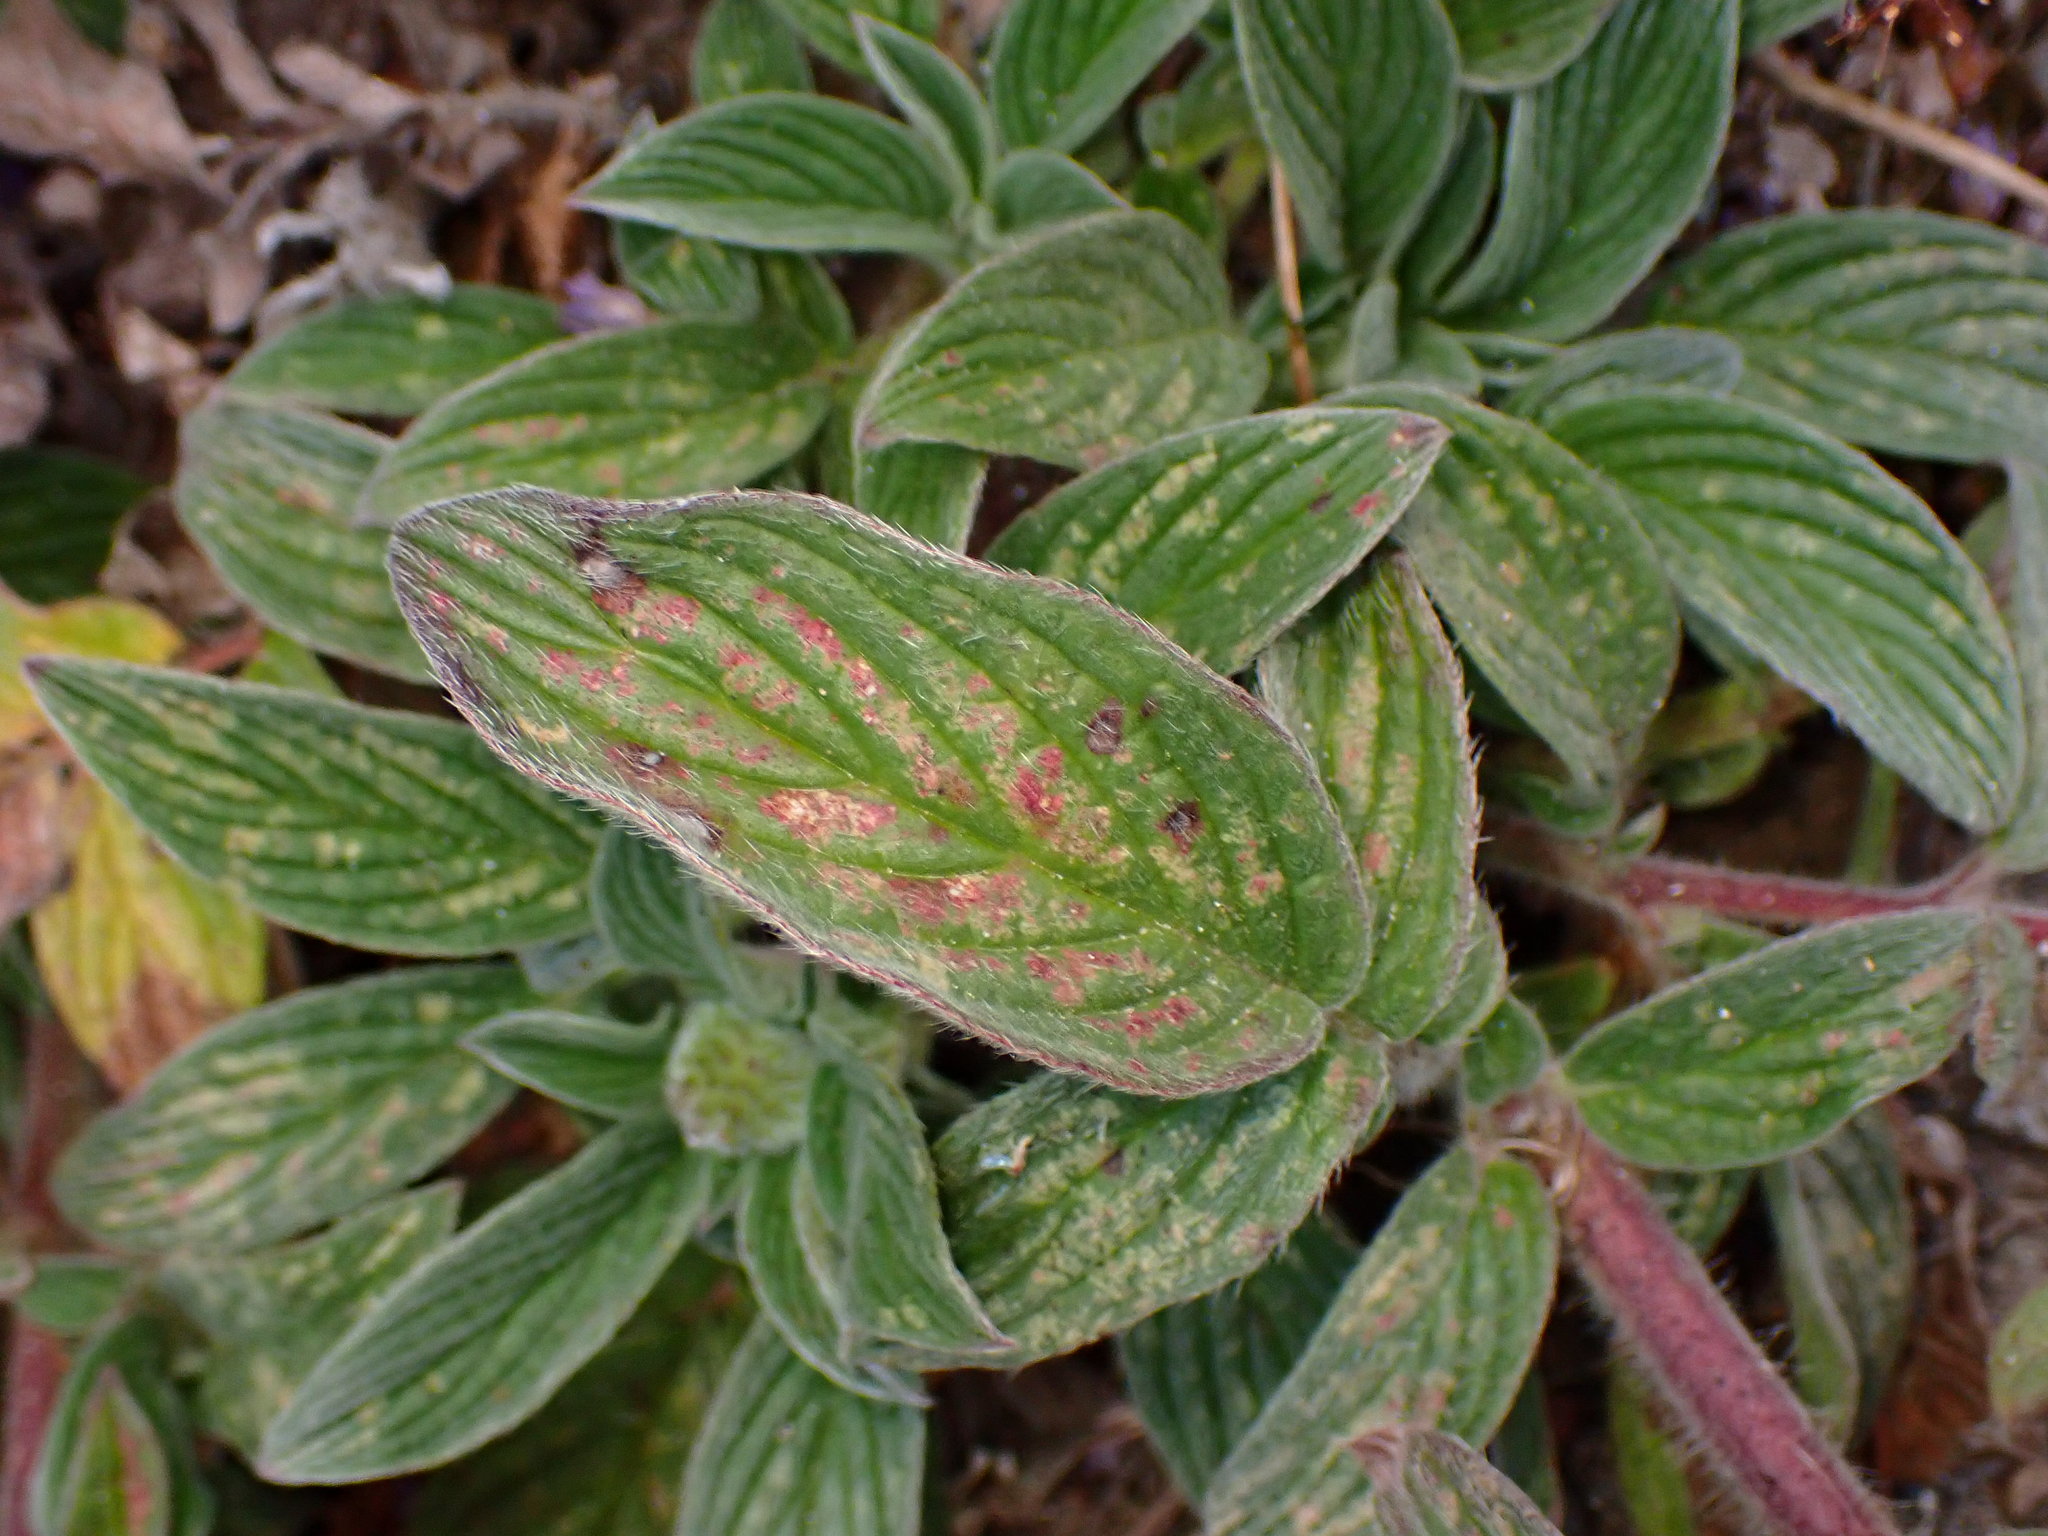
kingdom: Plantae
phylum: Tracheophyta
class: Magnoliopsida
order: Boraginales
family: Hydrophyllaceae
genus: Phacelia
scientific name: Phacelia californica
